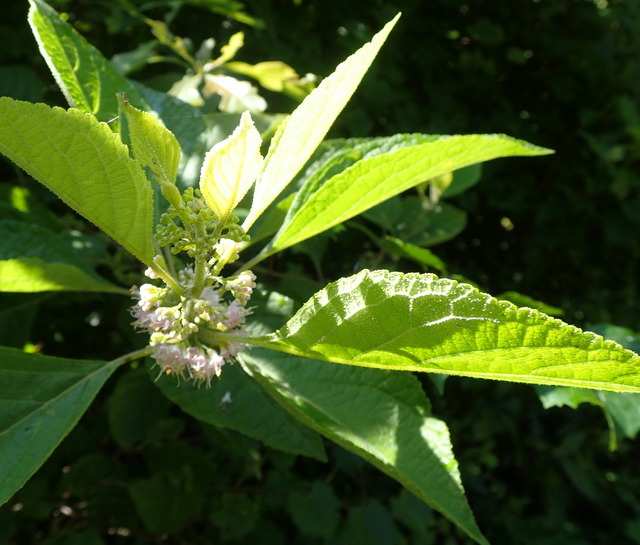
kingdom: Plantae
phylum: Tracheophyta
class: Magnoliopsida
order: Lamiales
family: Lamiaceae
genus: Callicarpa
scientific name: Callicarpa americana
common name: American beautyberry
